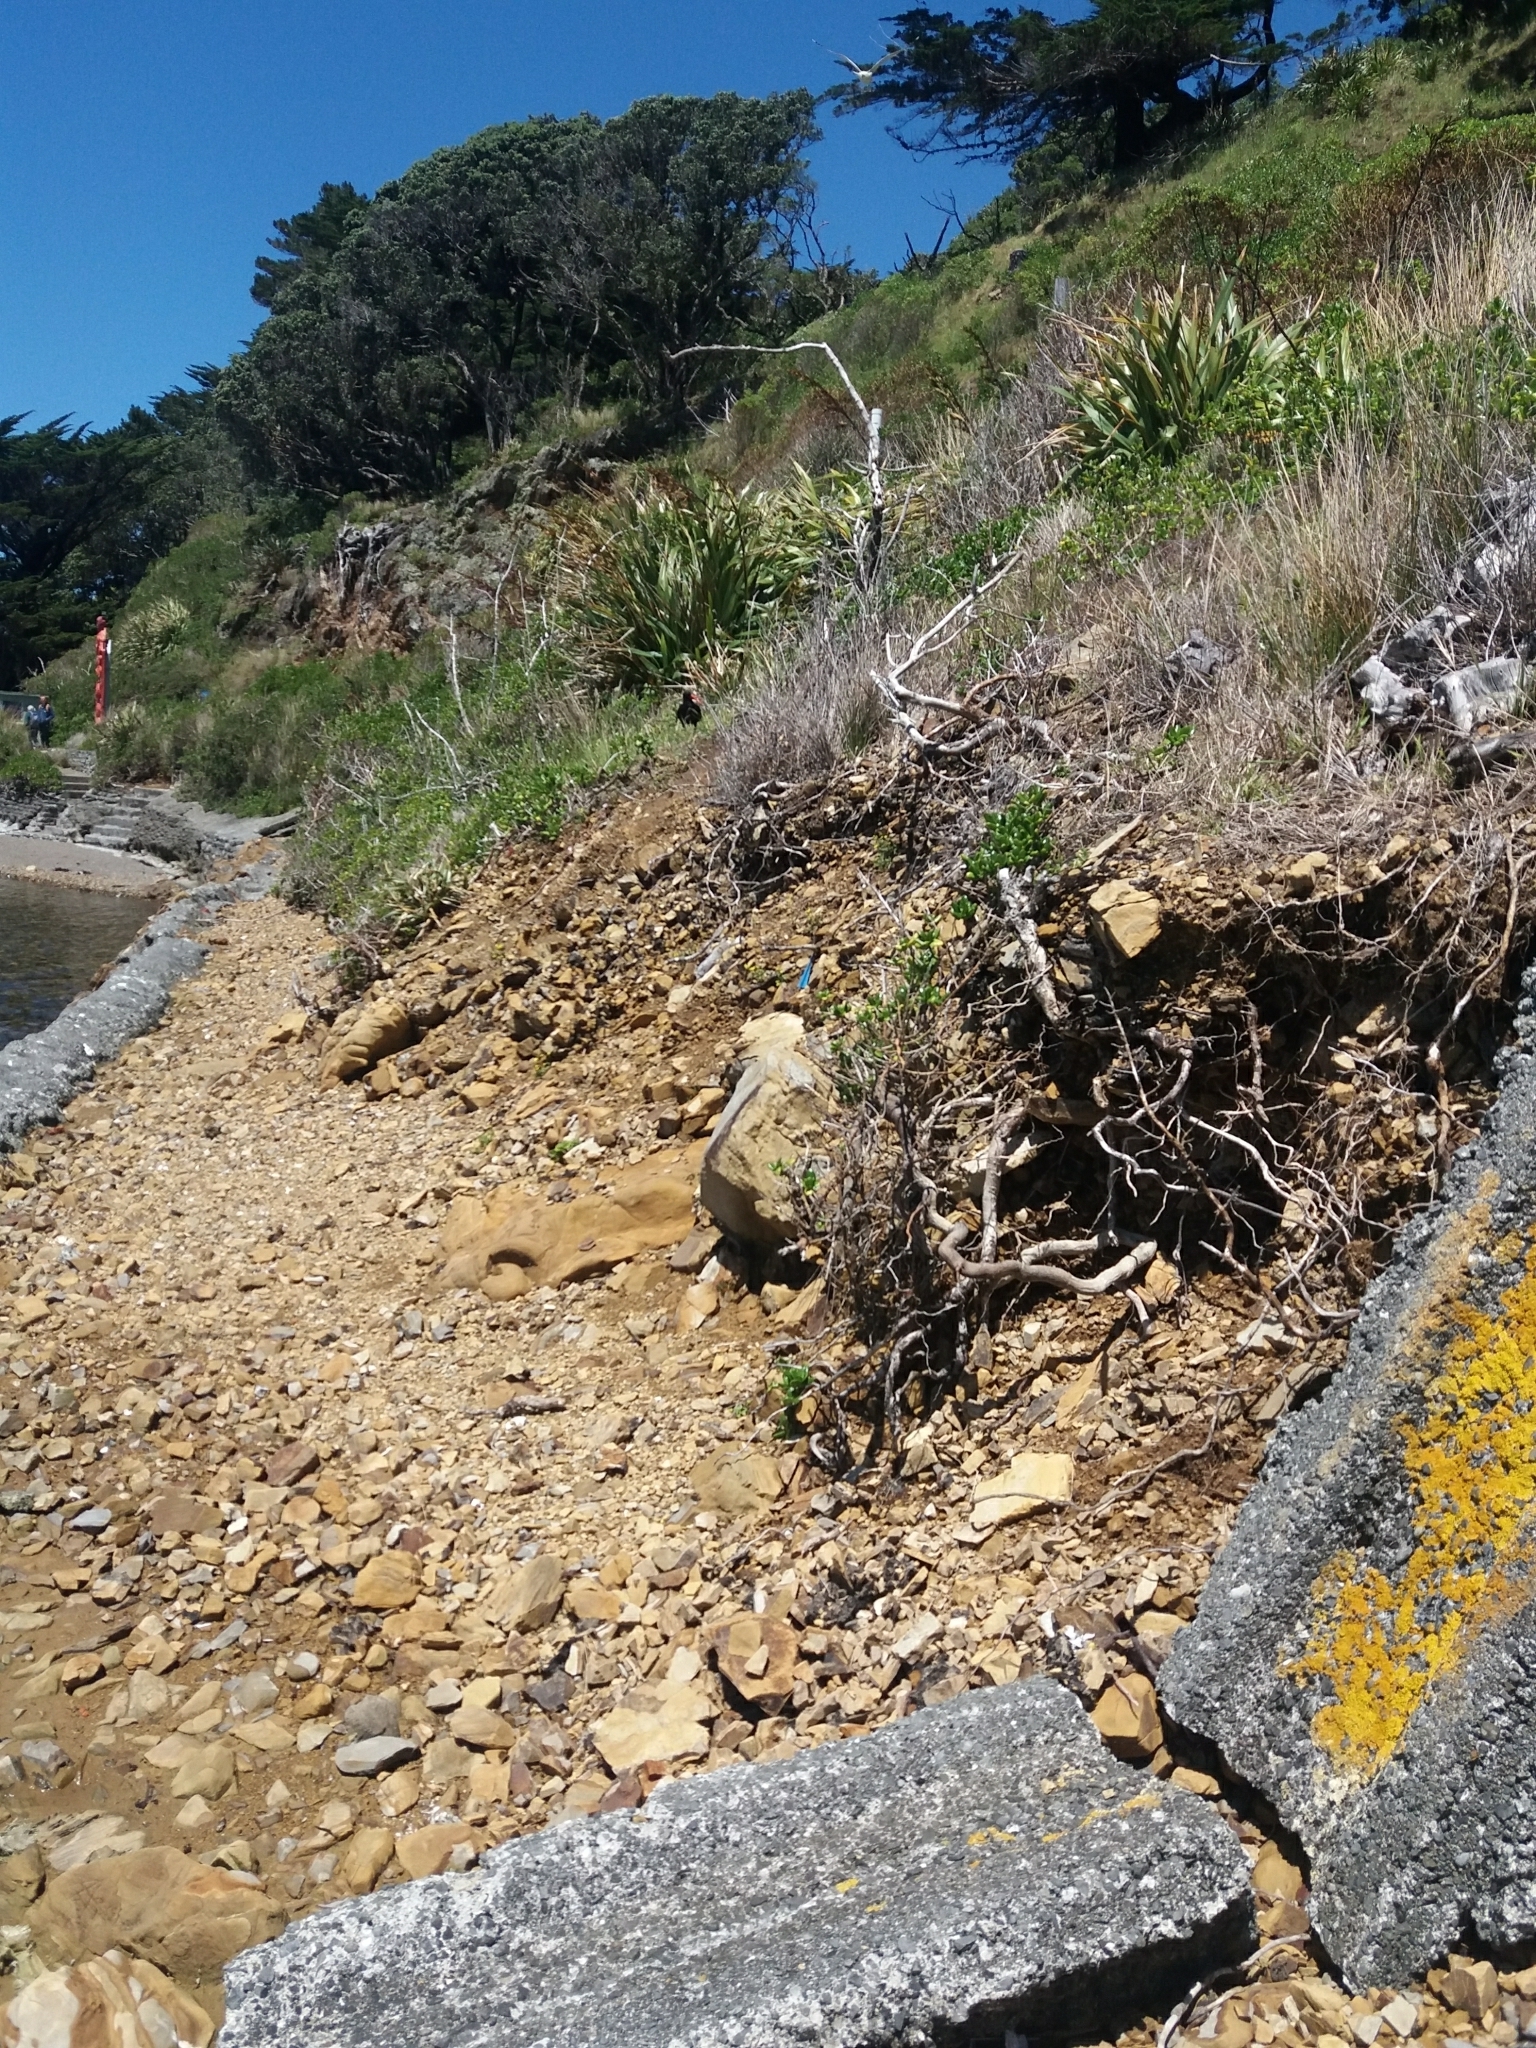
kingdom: Animalia
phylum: Chordata
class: Aves
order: Charadriiformes
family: Haematopodidae
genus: Haematopus
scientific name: Haematopus unicolor
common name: Variable oystercatcher
